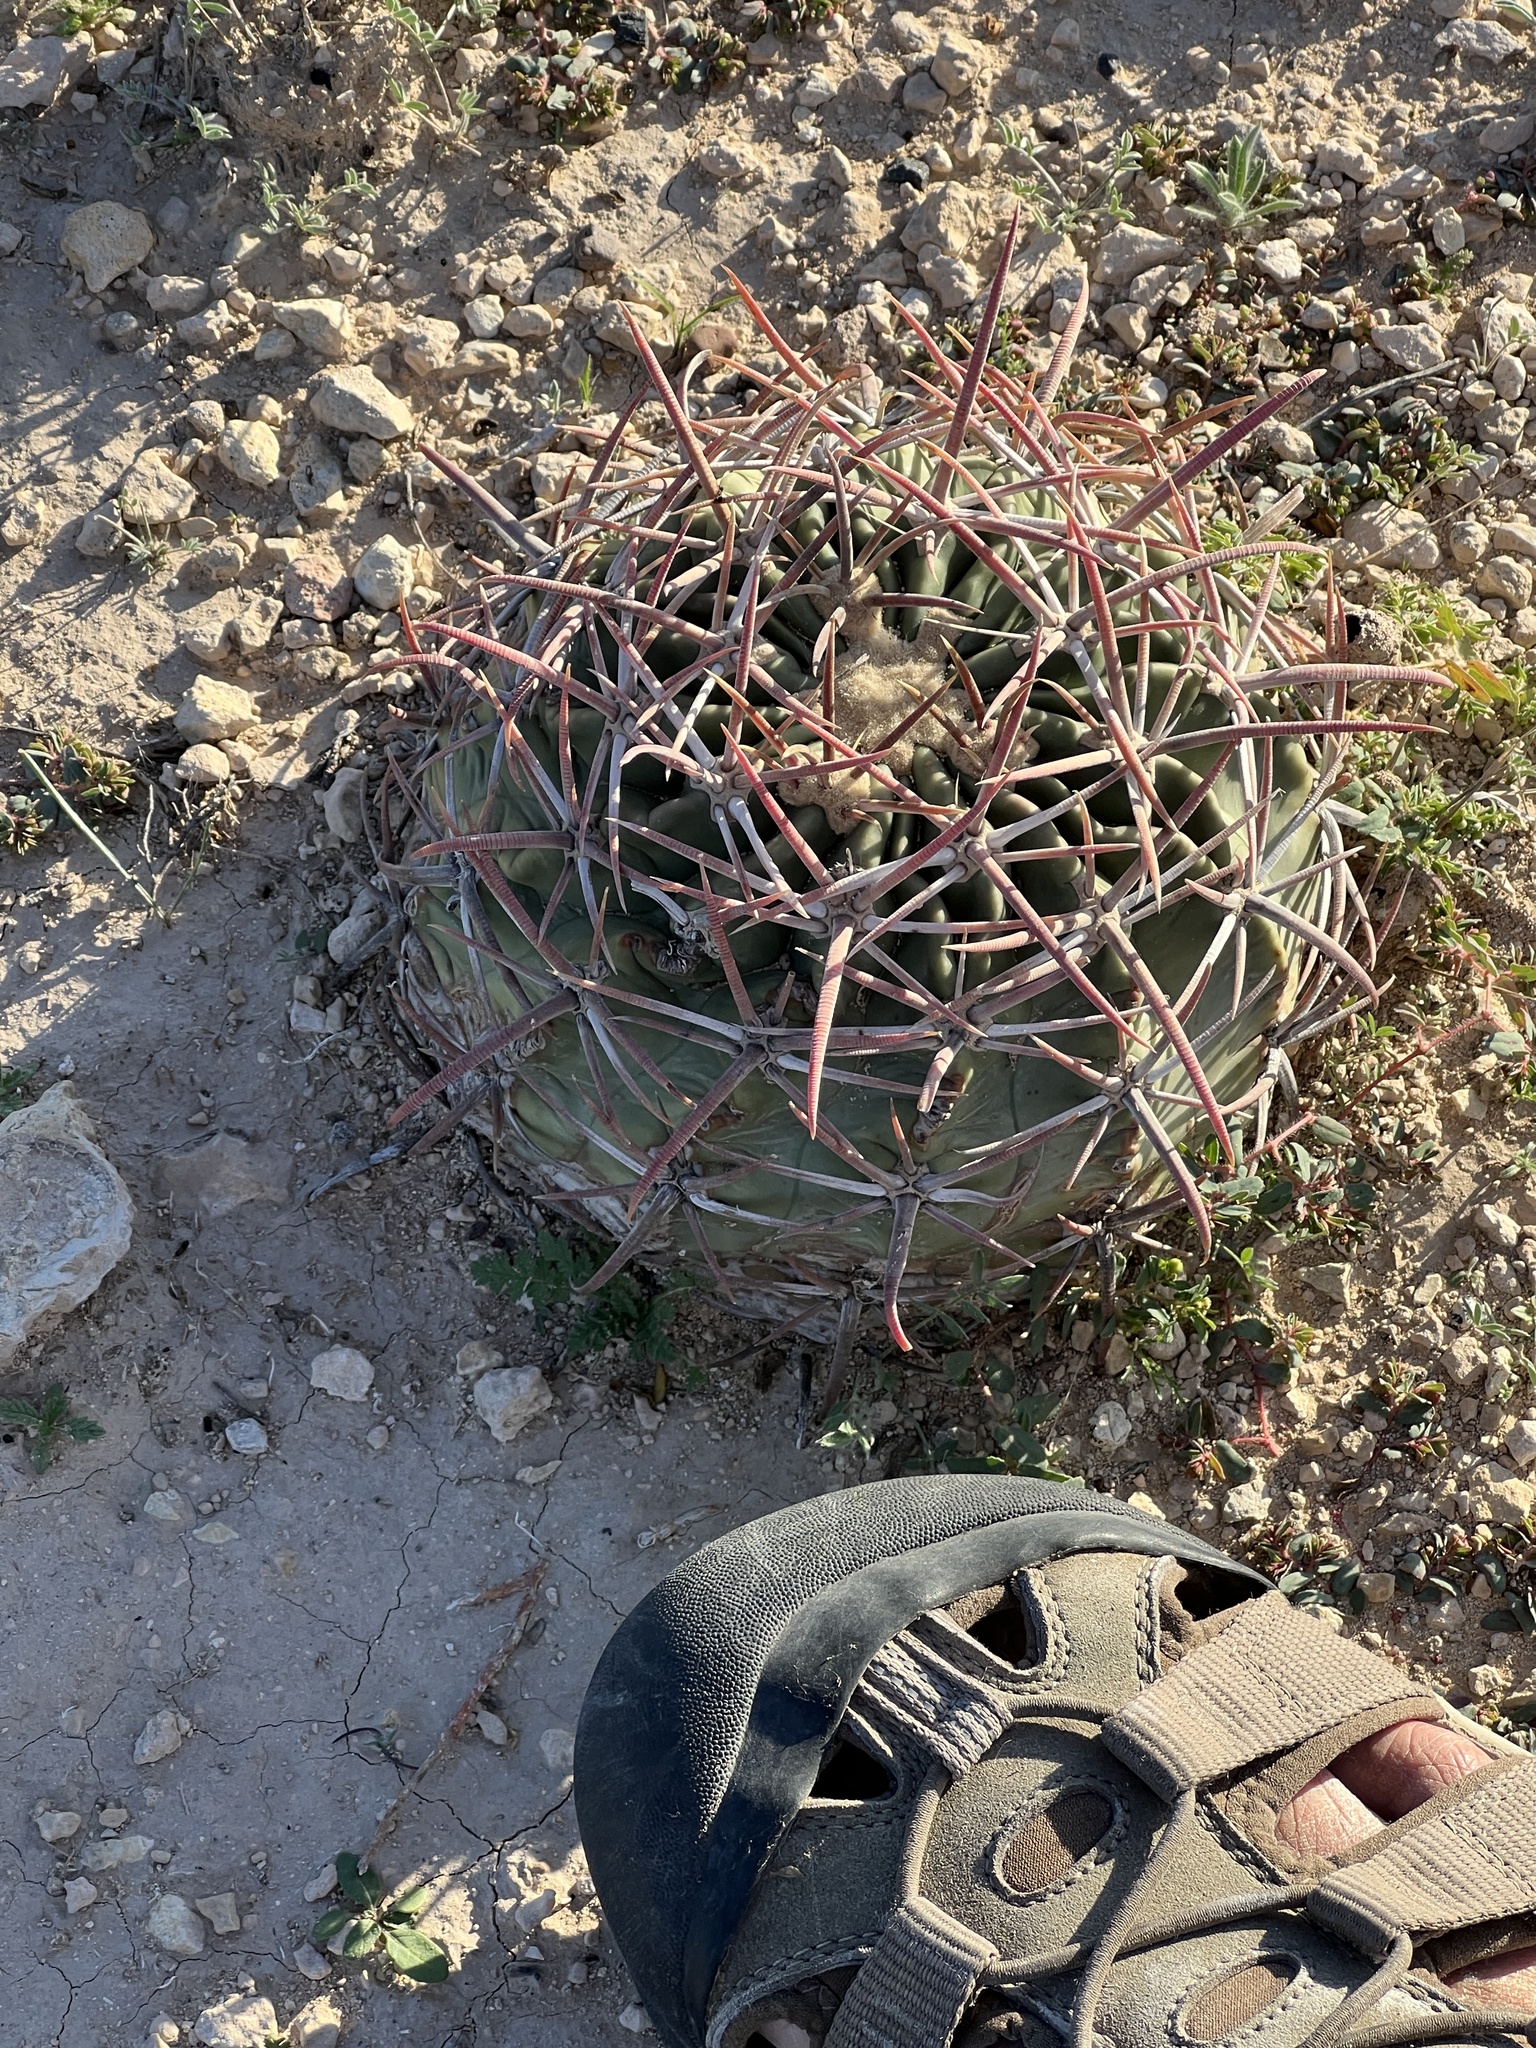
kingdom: Plantae
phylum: Tracheophyta
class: Magnoliopsida
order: Caryophyllales
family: Cactaceae
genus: Echinocactus
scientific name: Echinocactus texensis
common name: Devil's pincushion
